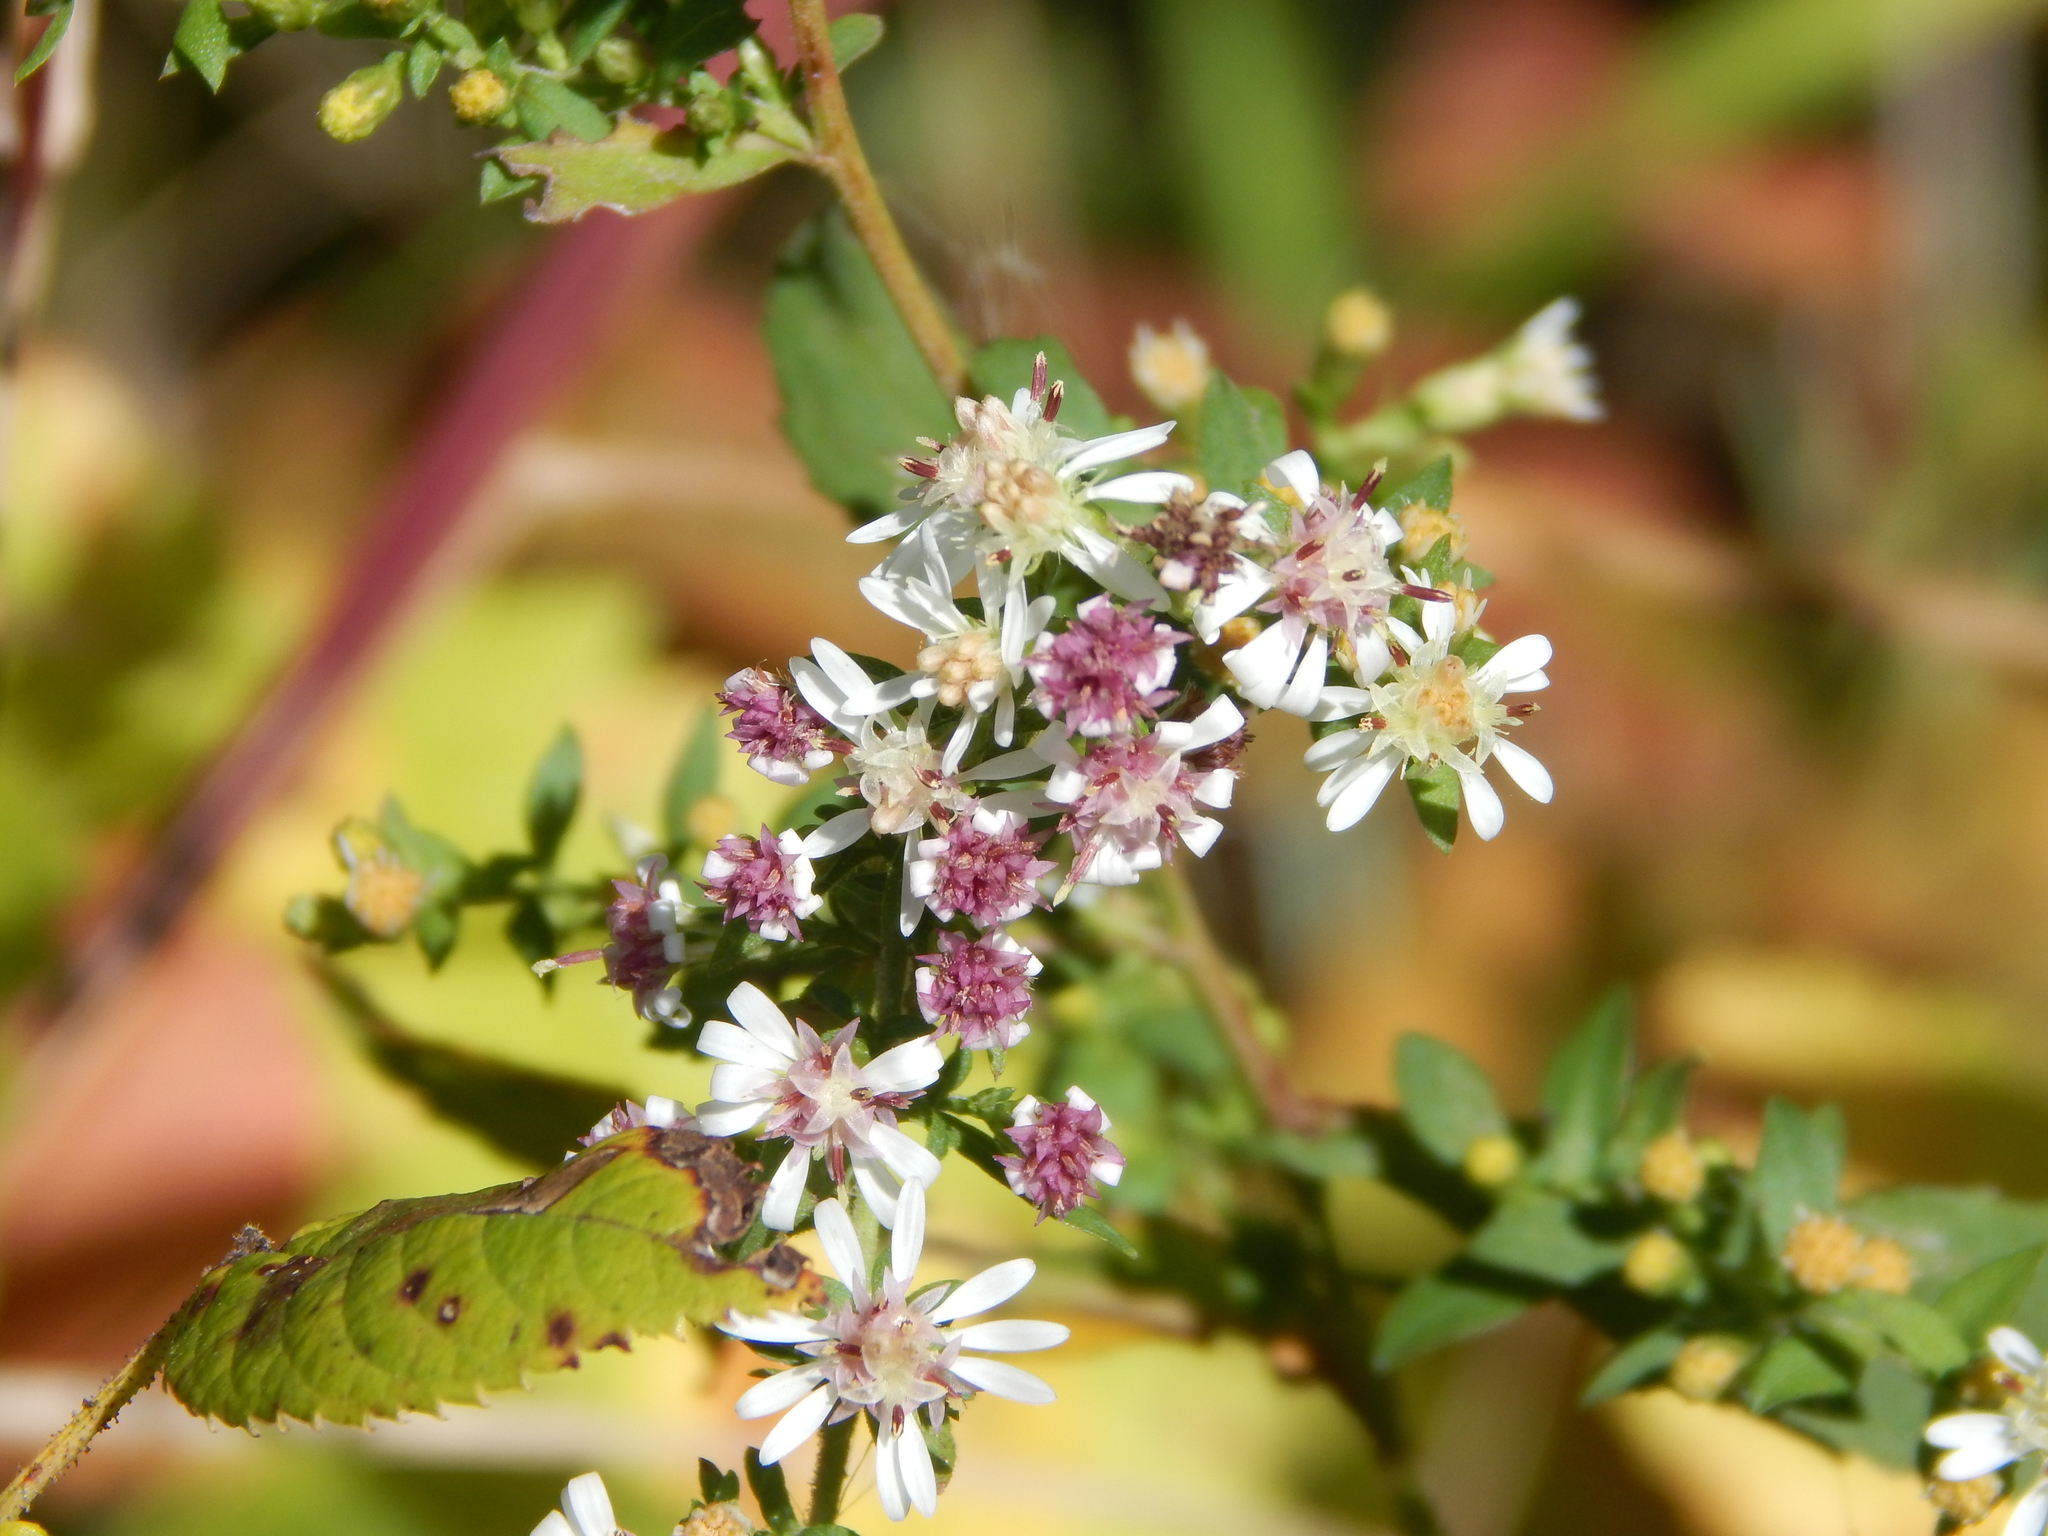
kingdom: Plantae
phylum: Tracheophyta
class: Magnoliopsida
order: Asterales
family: Asteraceae
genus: Symphyotrichum
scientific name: Symphyotrichum lateriflorum
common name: Calico aster
